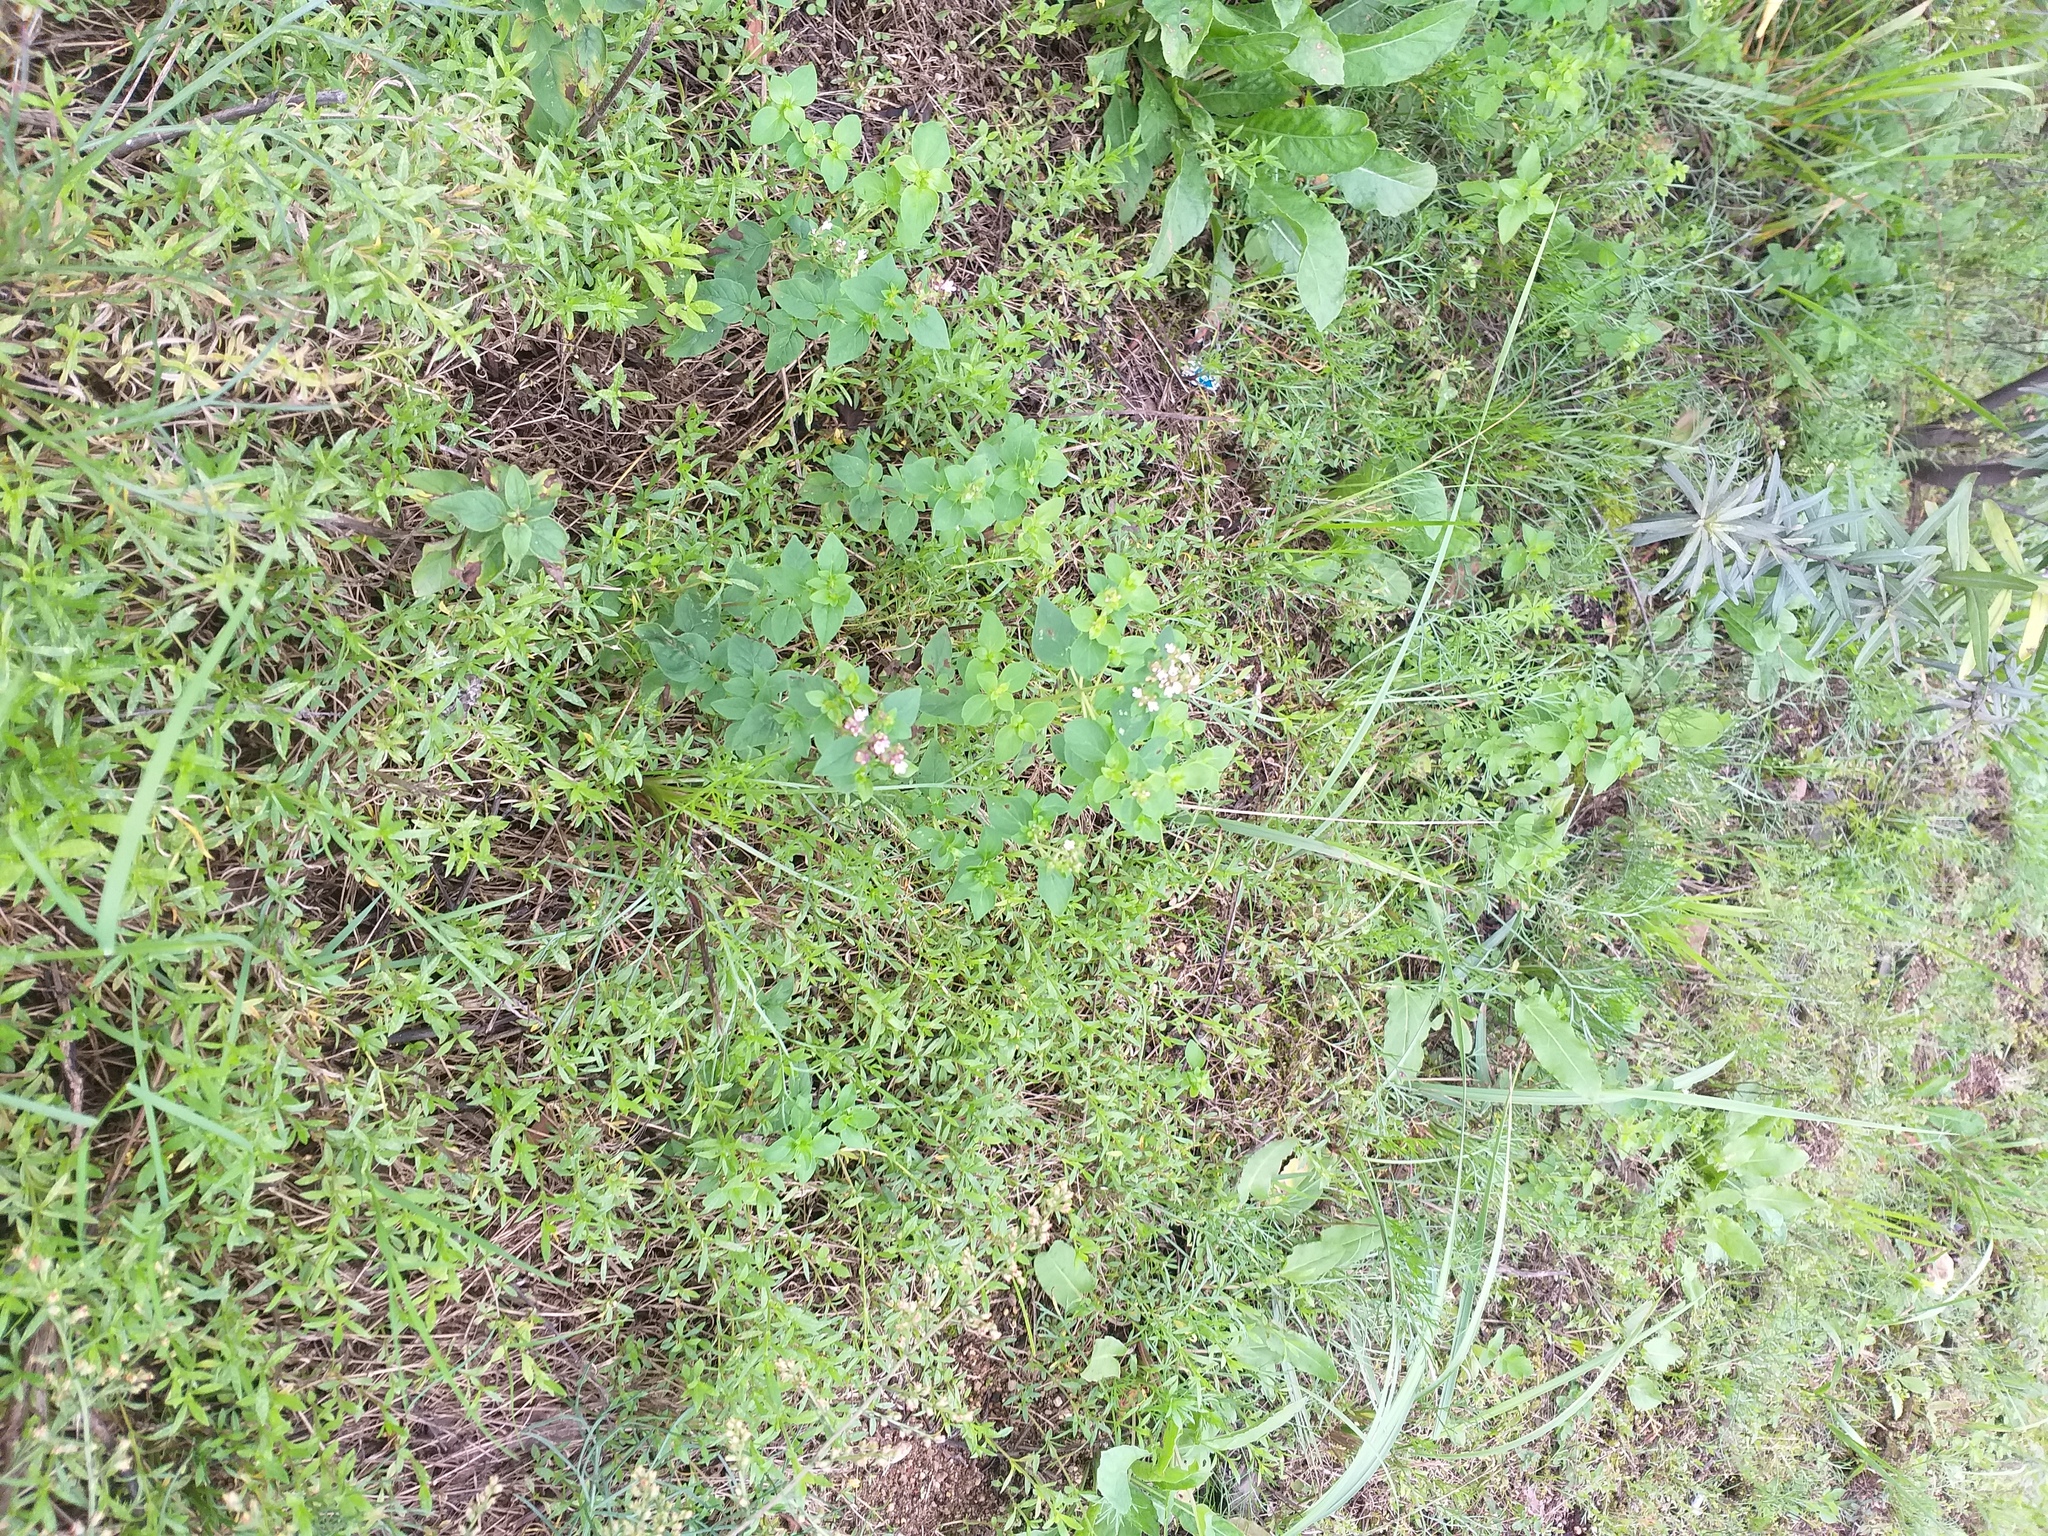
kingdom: Plantae
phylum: Tracheophyta
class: Magnoliopsida
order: Lamiales
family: Lamiaceae
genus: Origanum
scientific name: Origanum vulgare
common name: Wild marjoram
